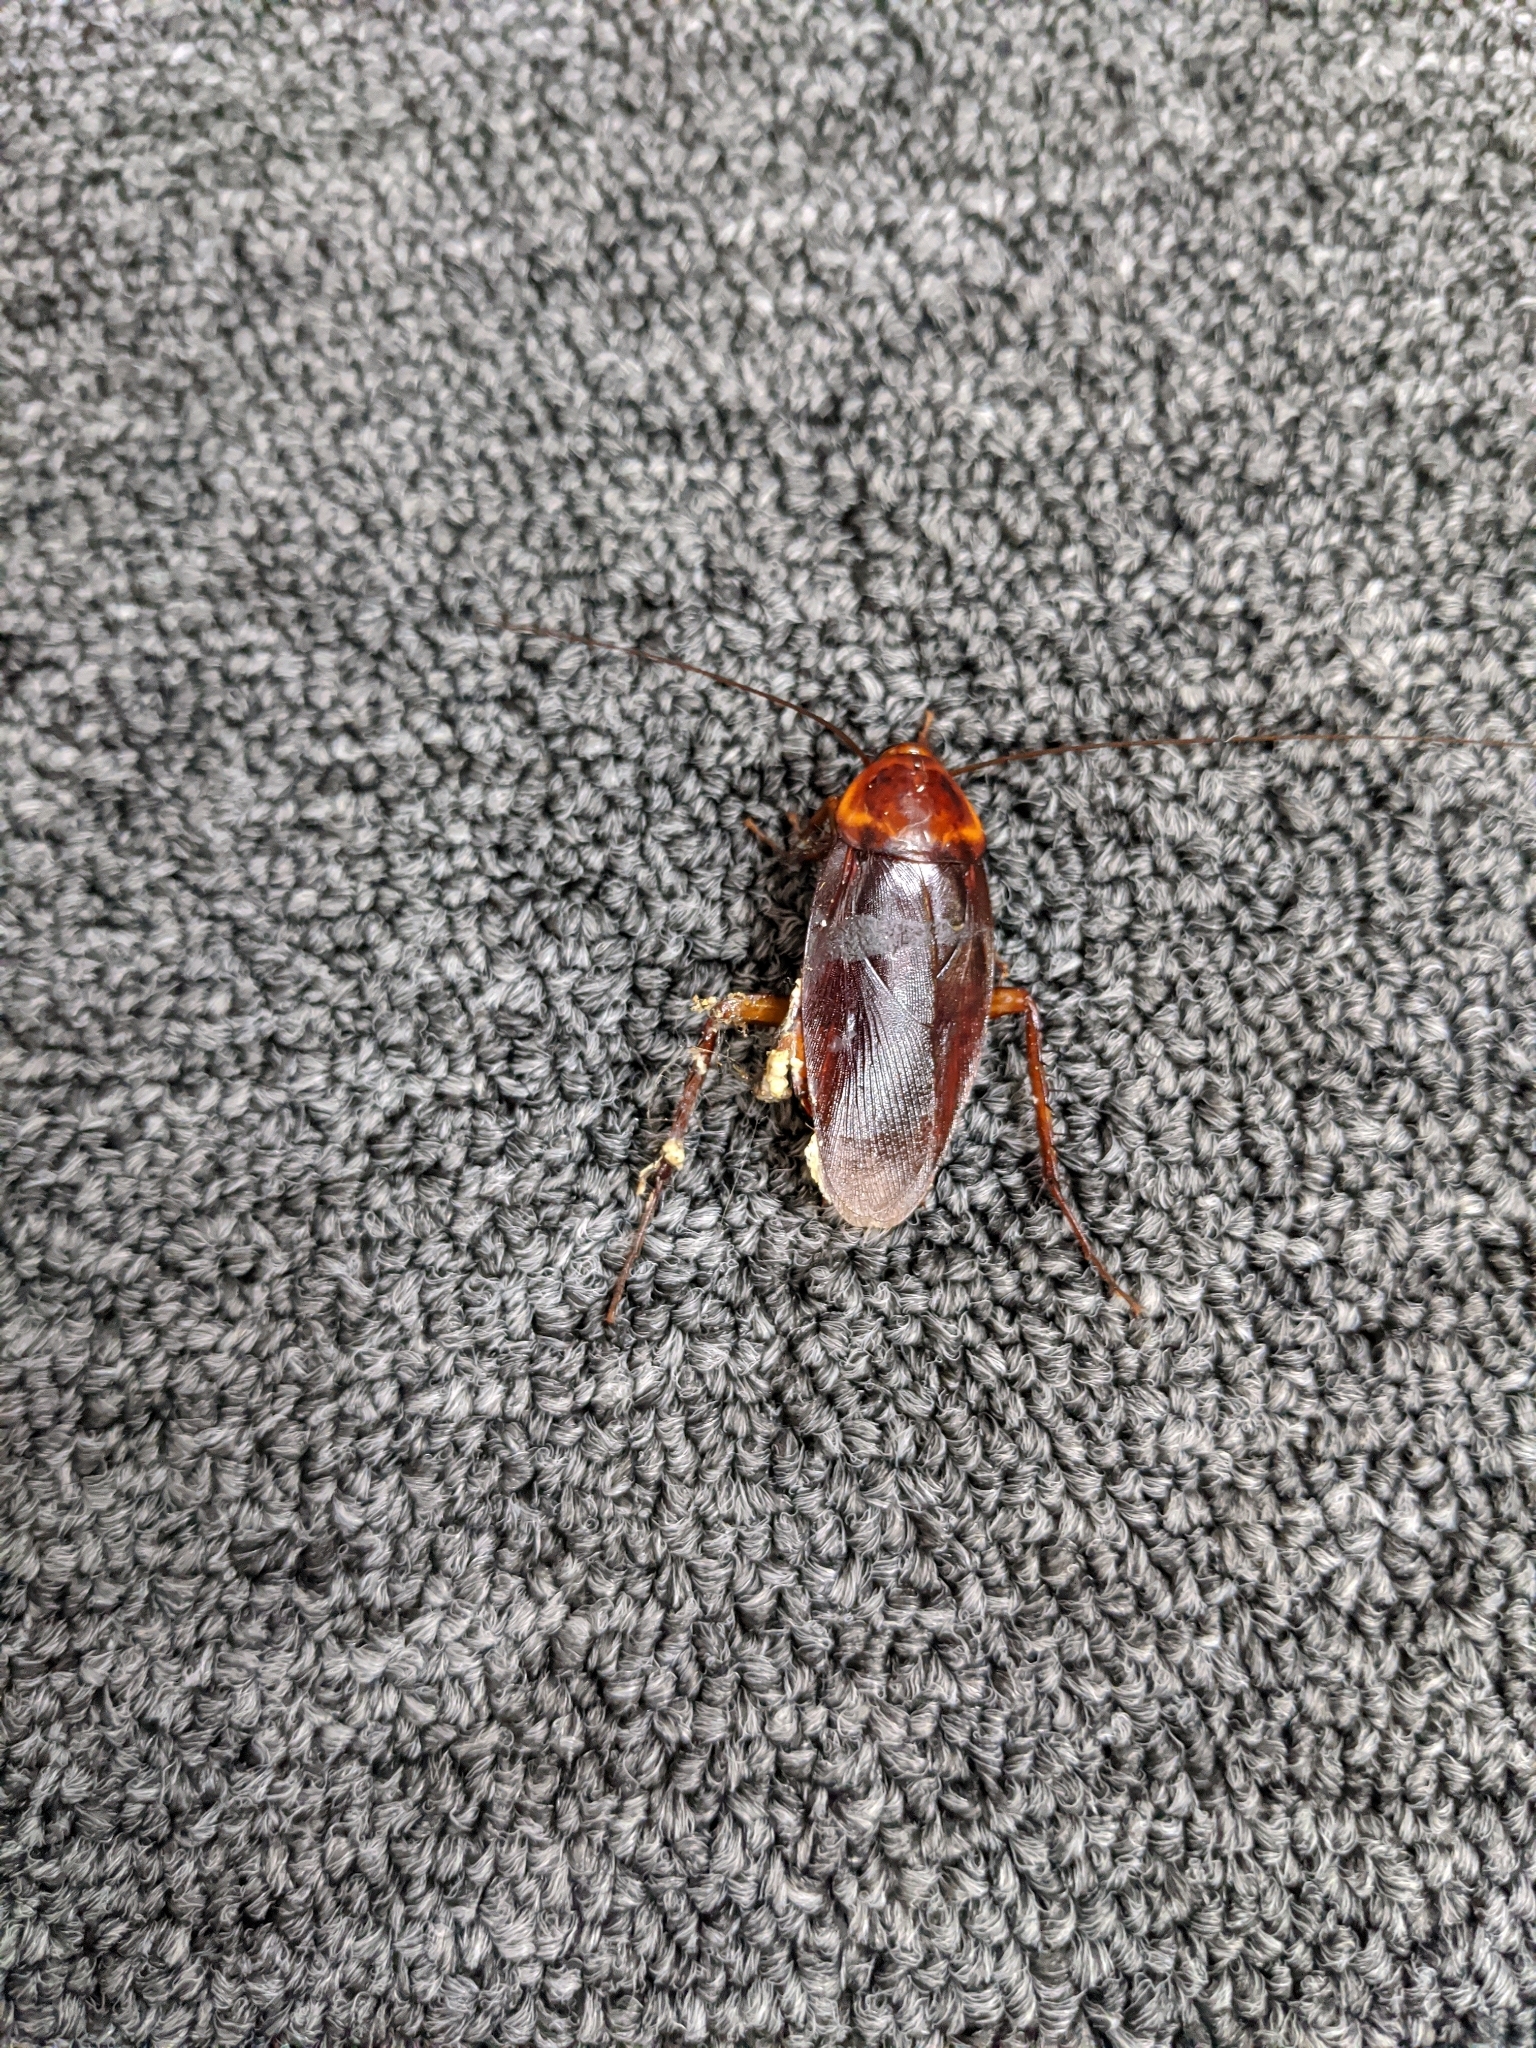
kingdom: Animalia
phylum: Arthropoda
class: Insecta
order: Blattodea
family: Blattidae
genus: Periplaneta
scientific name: Periplaneta americana
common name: American cockroach
